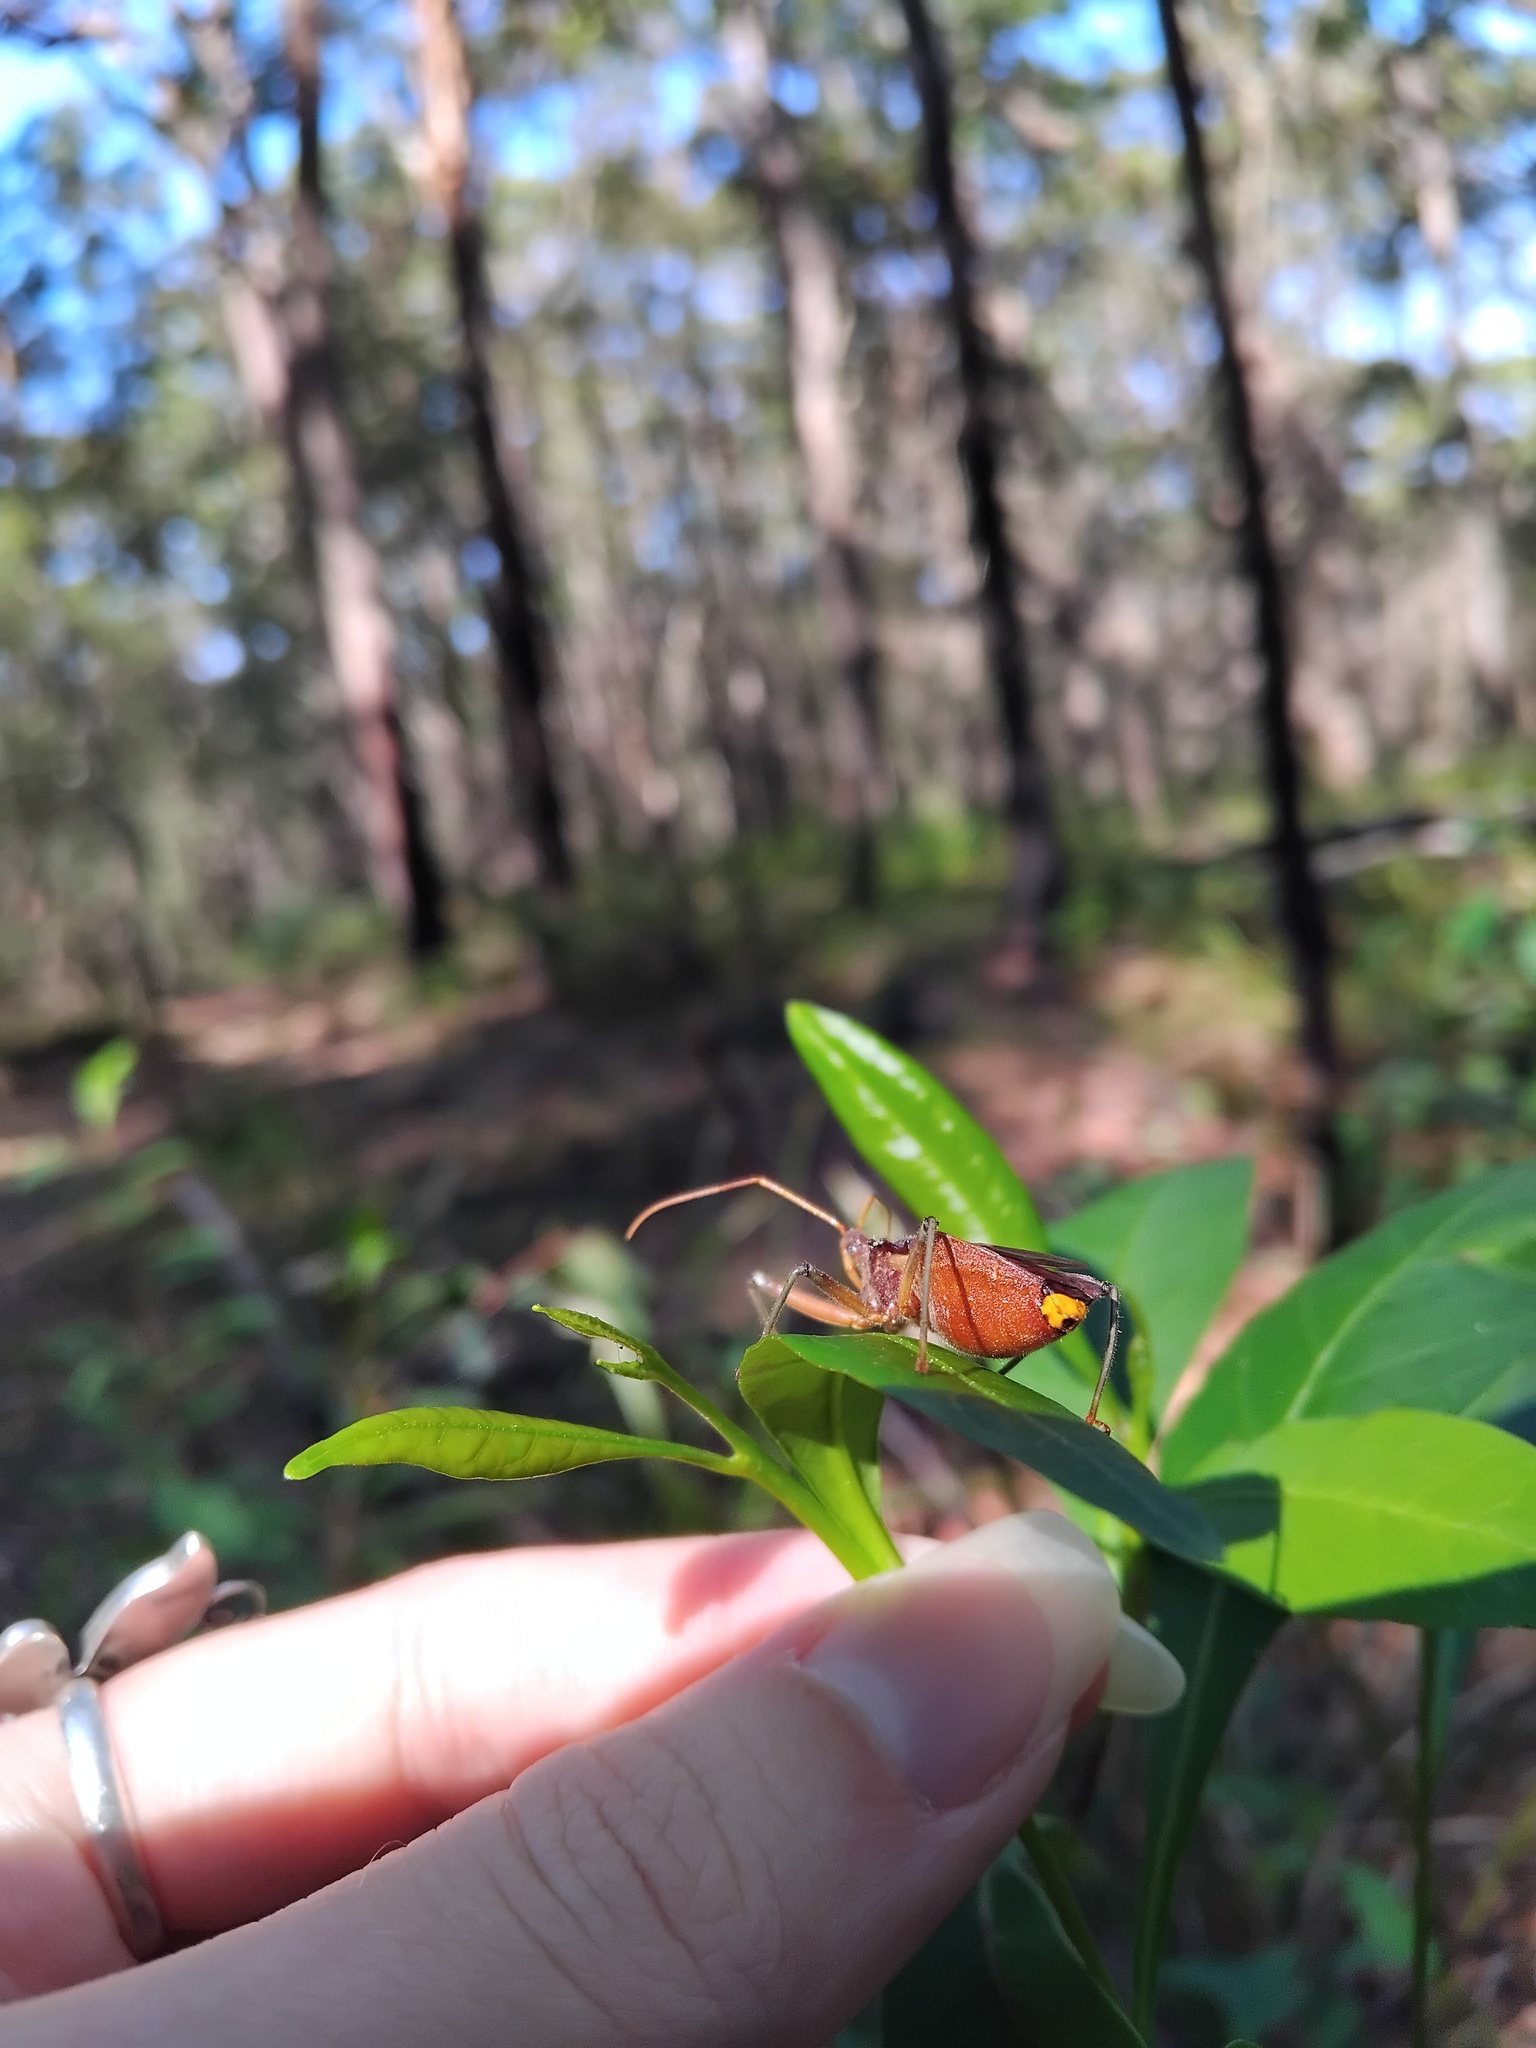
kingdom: Animalia
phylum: Arthropoda
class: Insecta
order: Hemiptera
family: Reduviidae
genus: Pristhesancus
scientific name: Pristhesancus plagipennis
